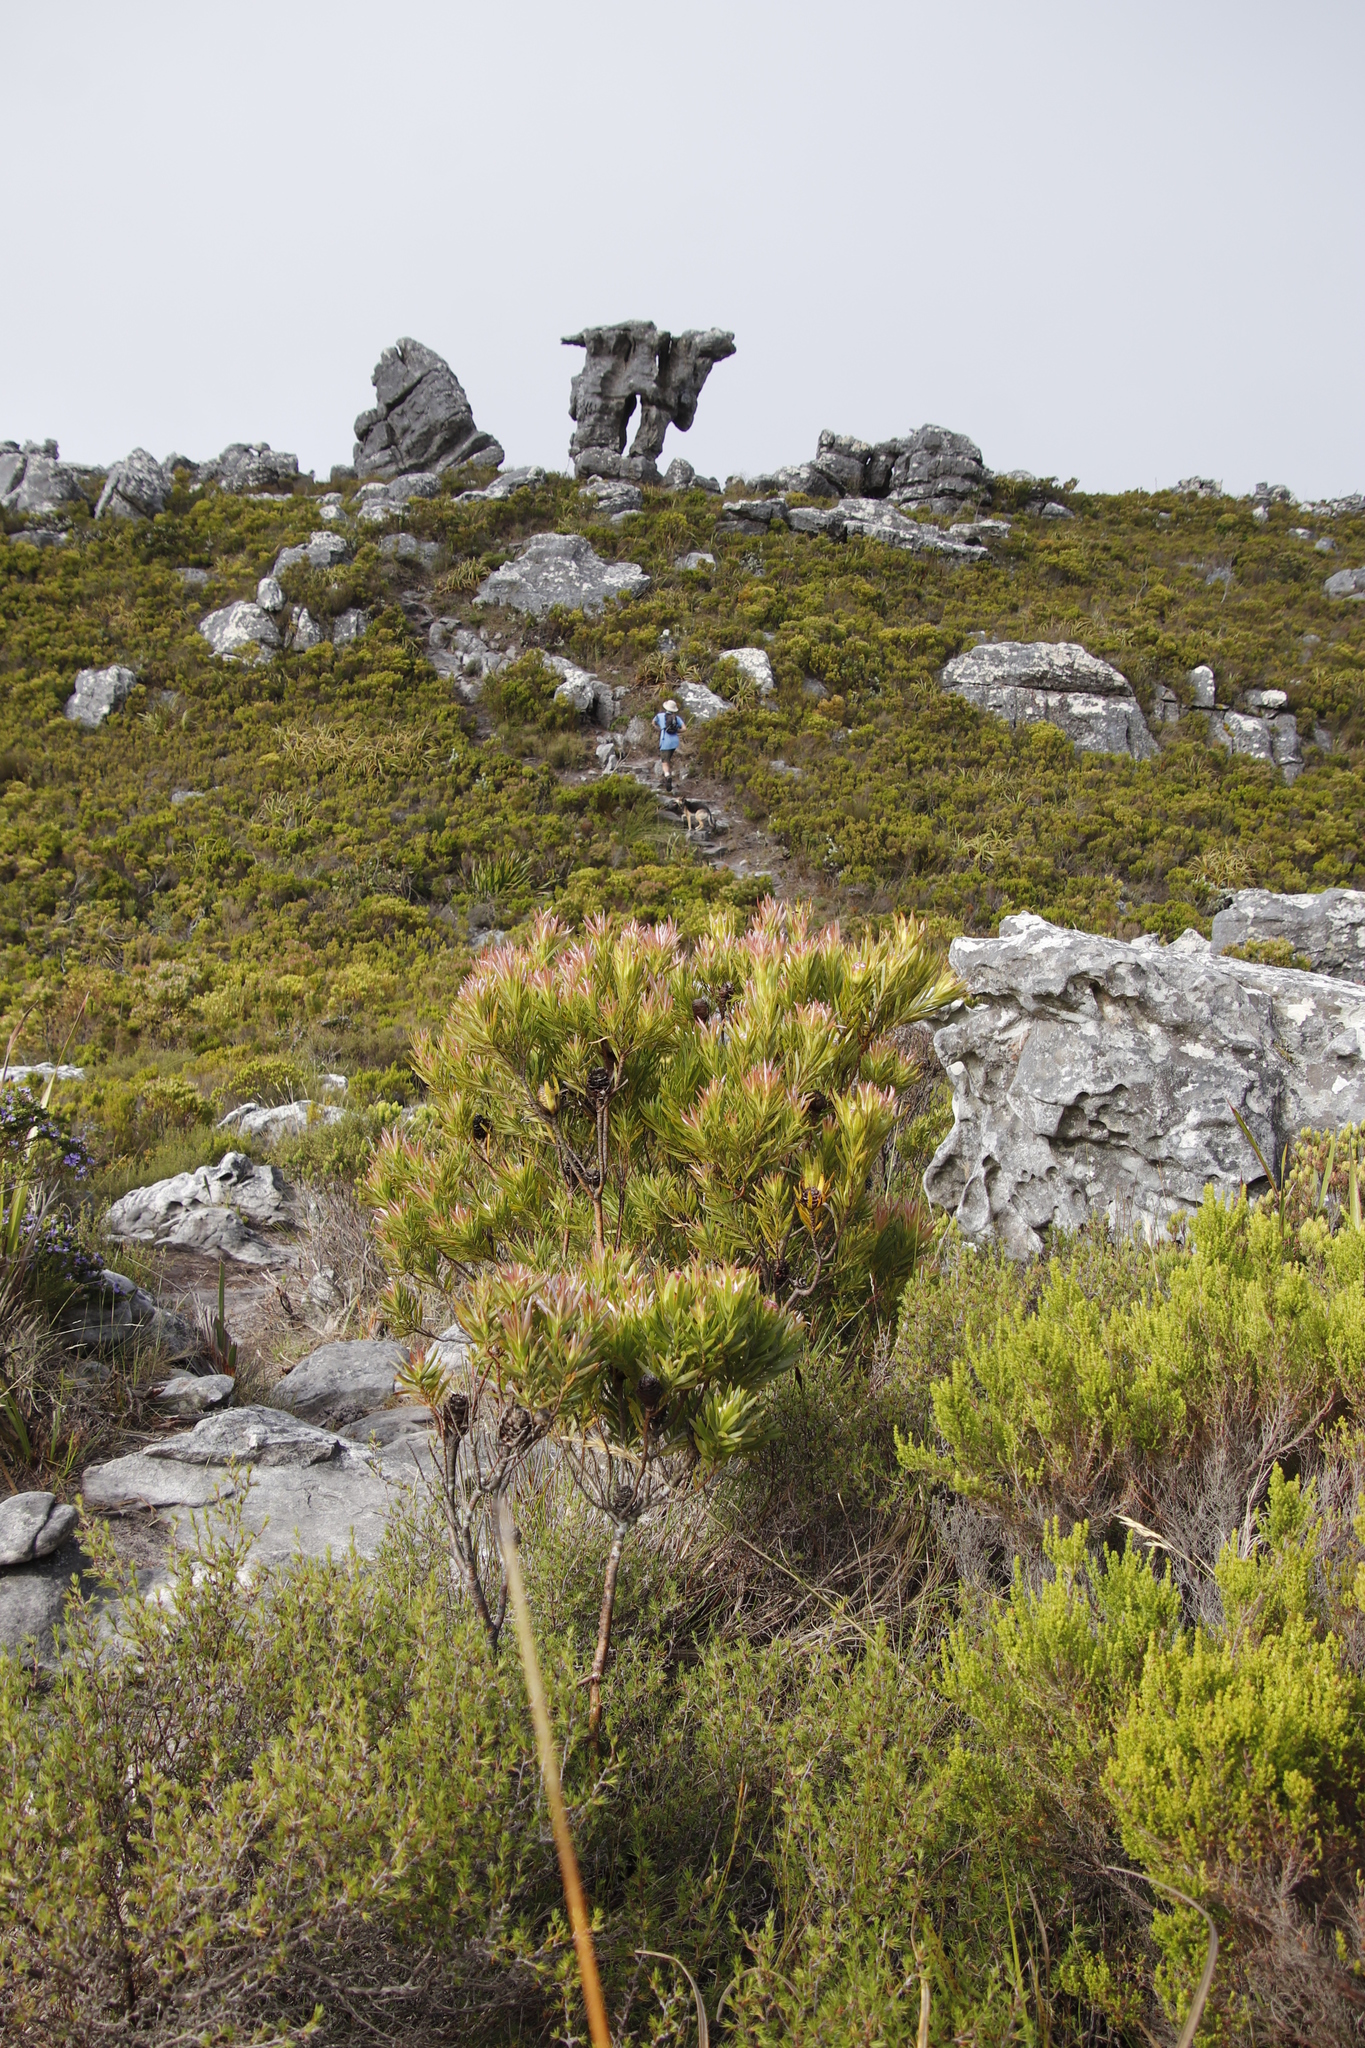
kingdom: Plantae
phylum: Tracheophyta
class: Magnoliopsida
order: Proteales
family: Proteaceae
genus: Leucadendron
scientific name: Leucadendron xanthoconus
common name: Sickle-leaf conebush
